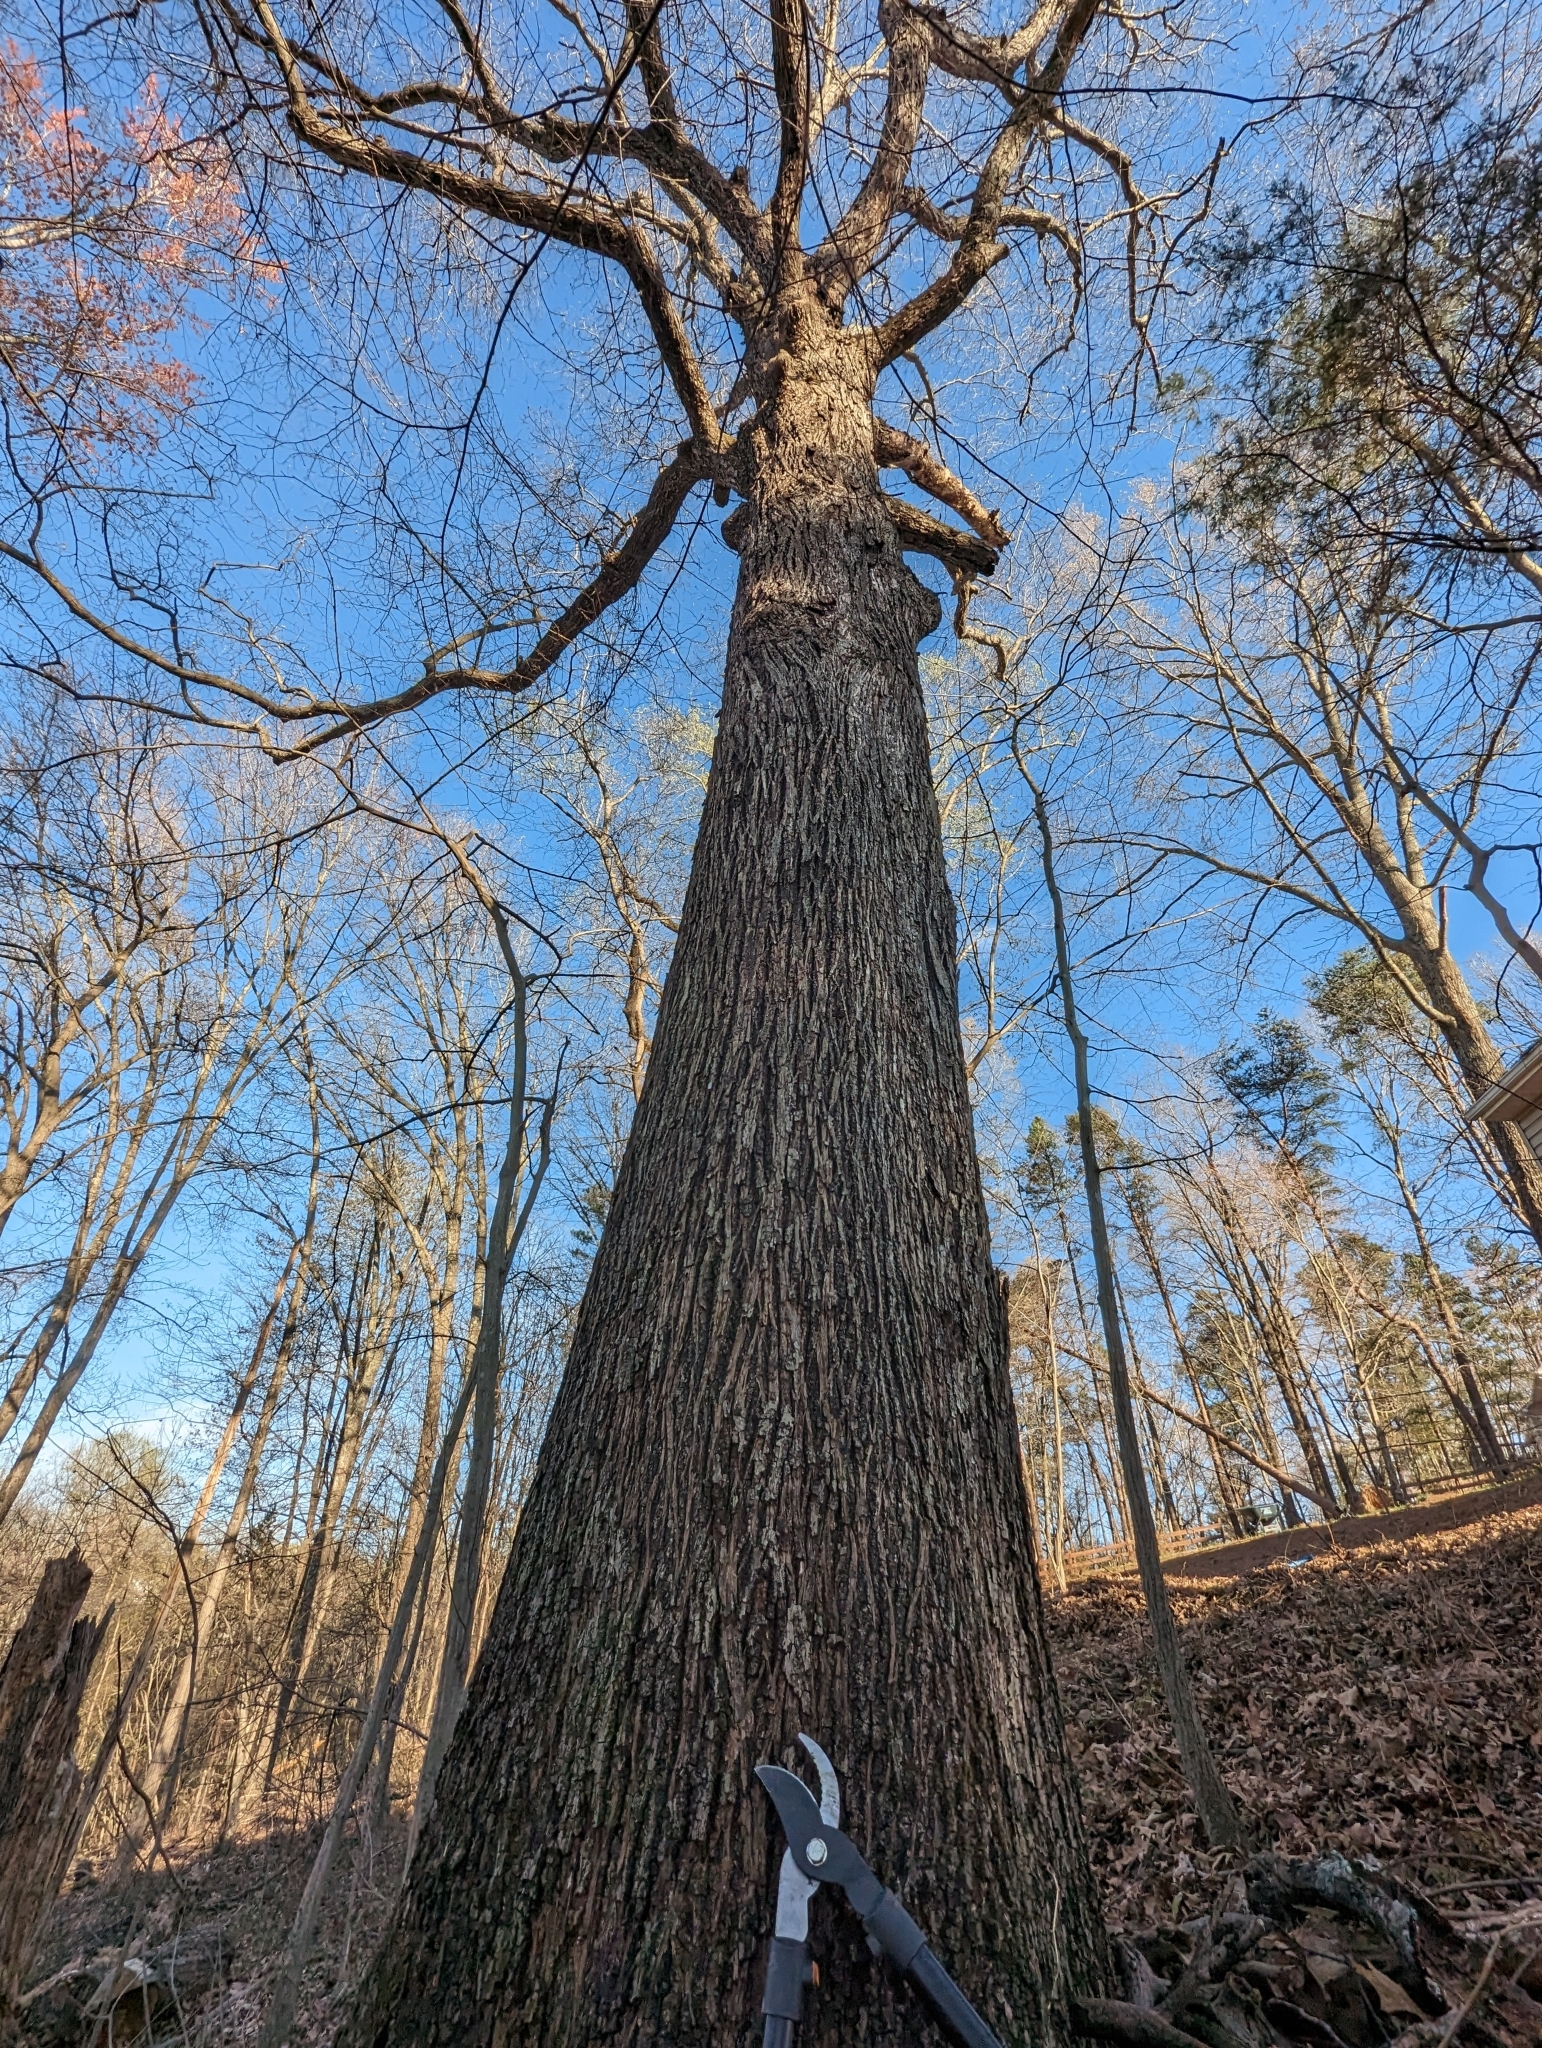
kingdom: Plantae
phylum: Tracheophyta
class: Magnoliopsida
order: Fagales
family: Juglandaceae
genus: Carya
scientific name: Carya alba
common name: Mockernut hickory
